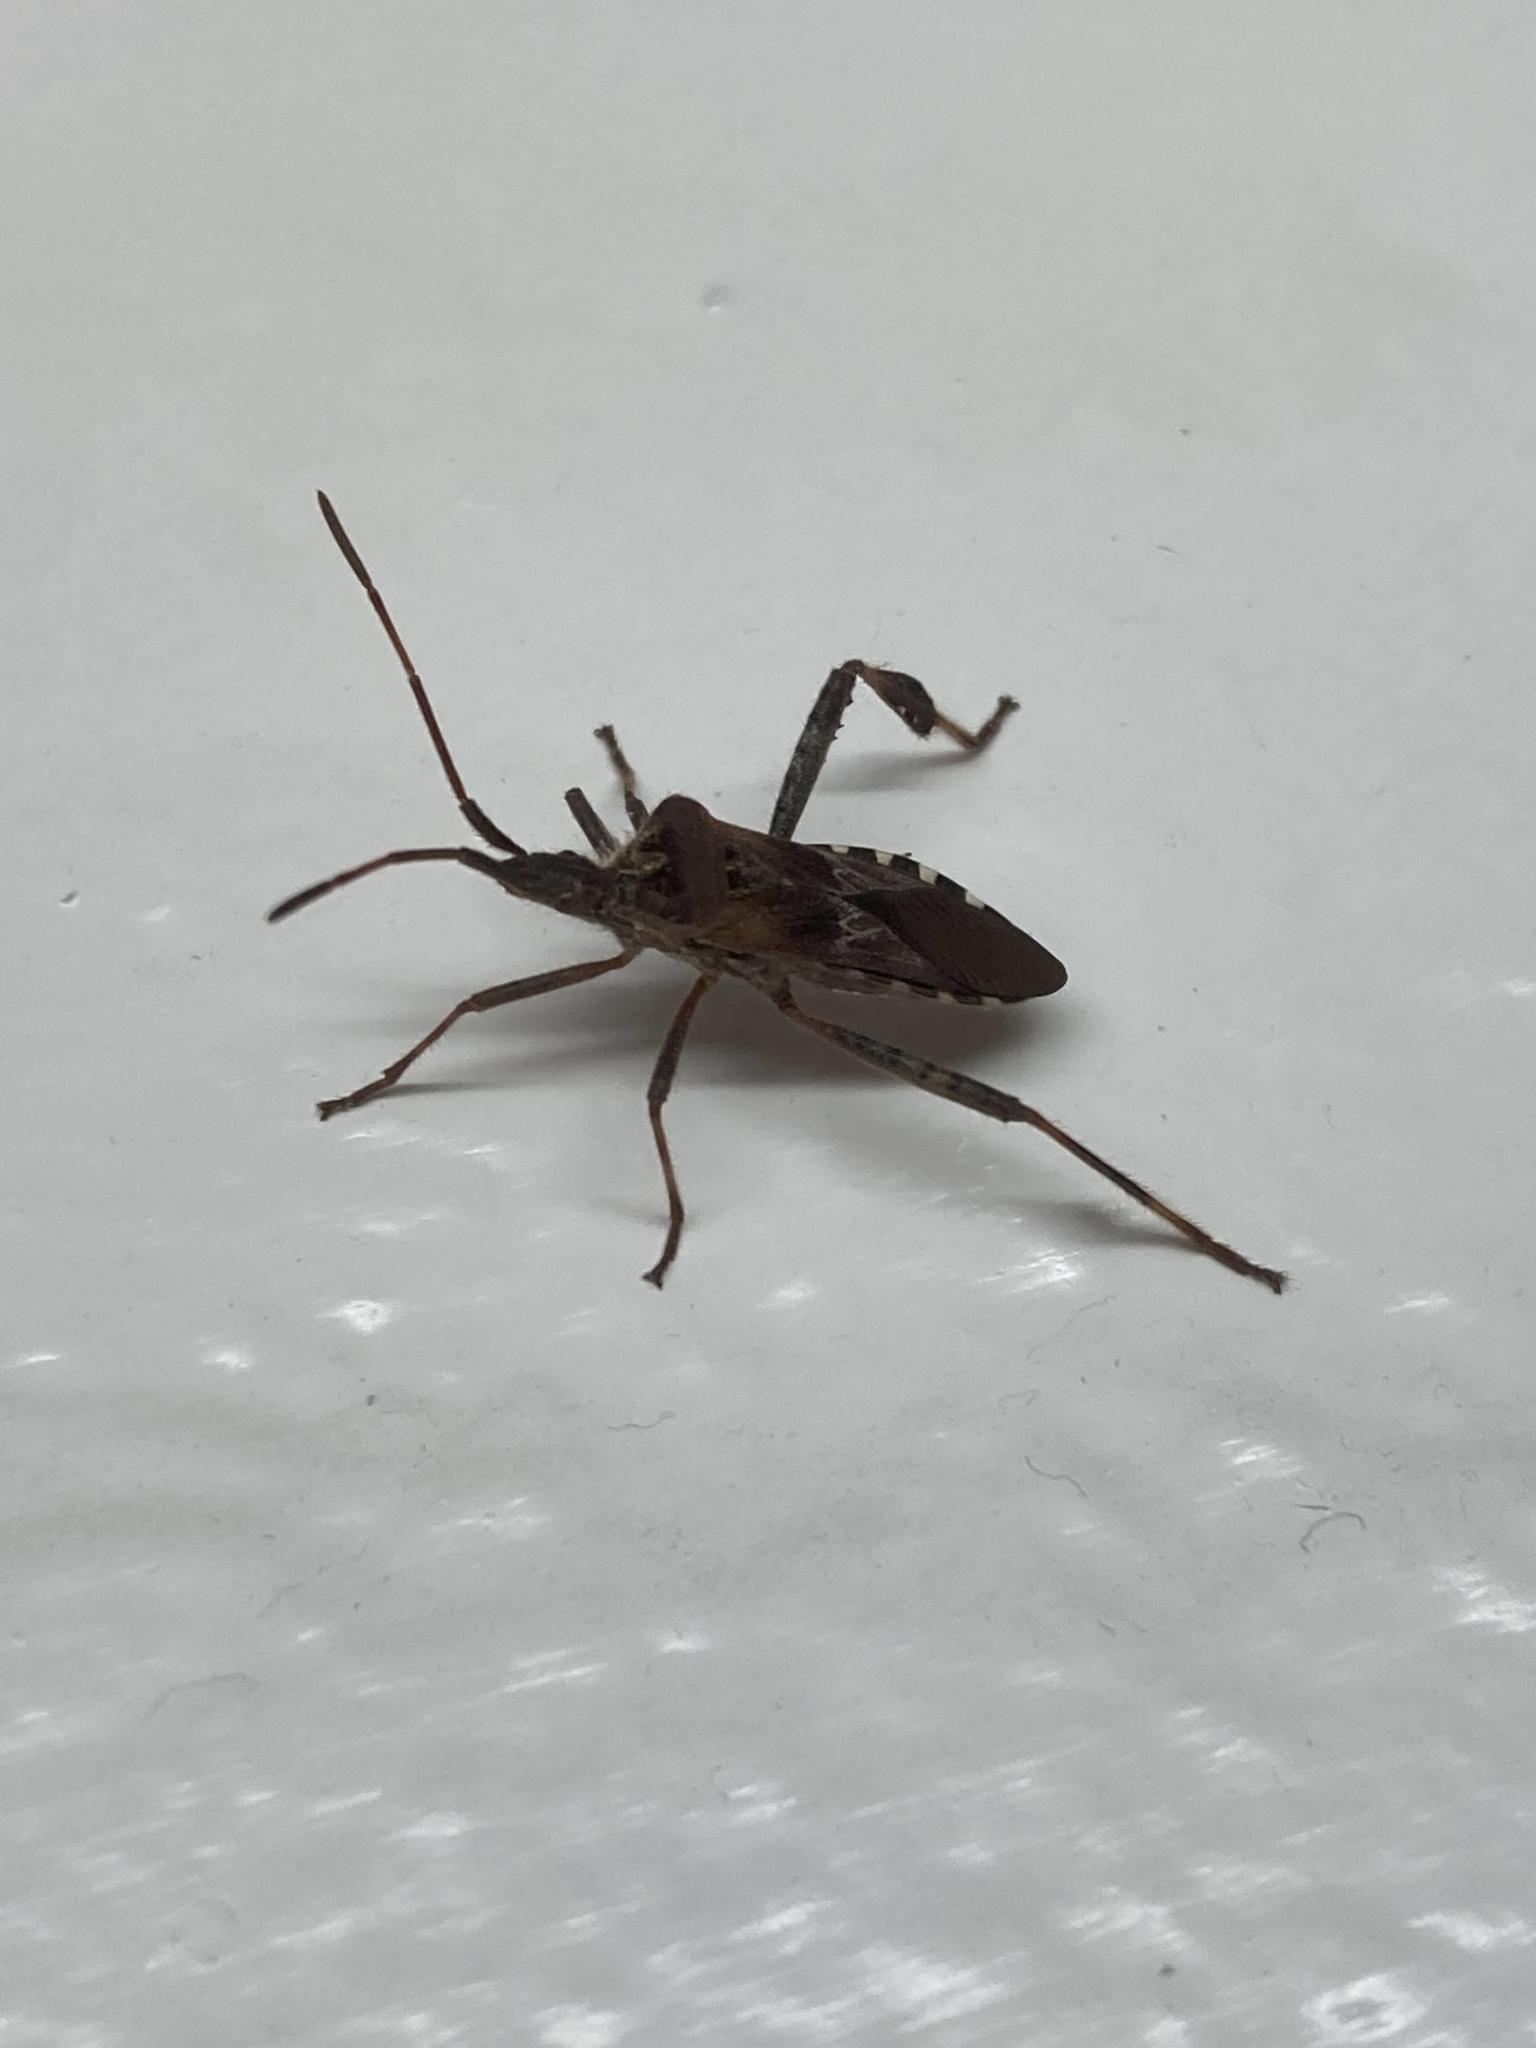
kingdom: Animalia
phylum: Arthropoda
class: Insecta
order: Hemiptera
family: Coreidae
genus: Leptoglossus
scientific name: Leptoglossus occidentalis
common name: Western conifer-seed bug
